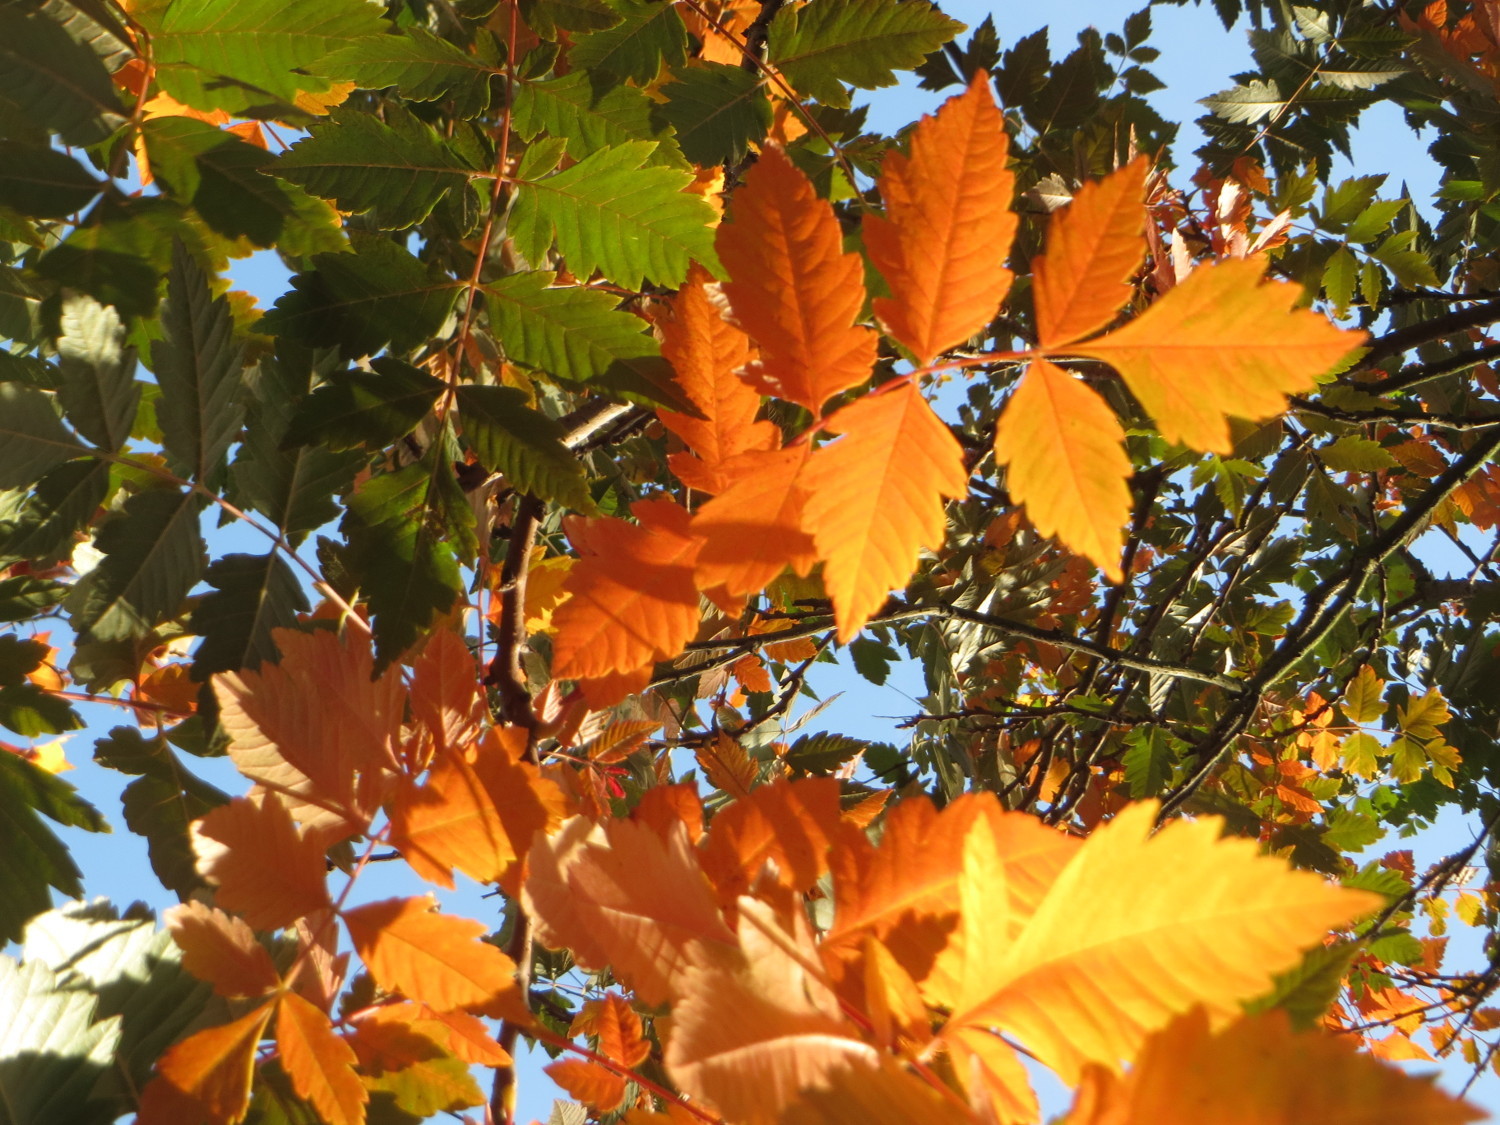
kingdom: Plantae
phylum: Tracheophyta
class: Magnoliopsida
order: Sapindales
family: Sapindaceae
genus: Koelreuteria
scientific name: Koelreuteria paniculata
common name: Pride-of-india
